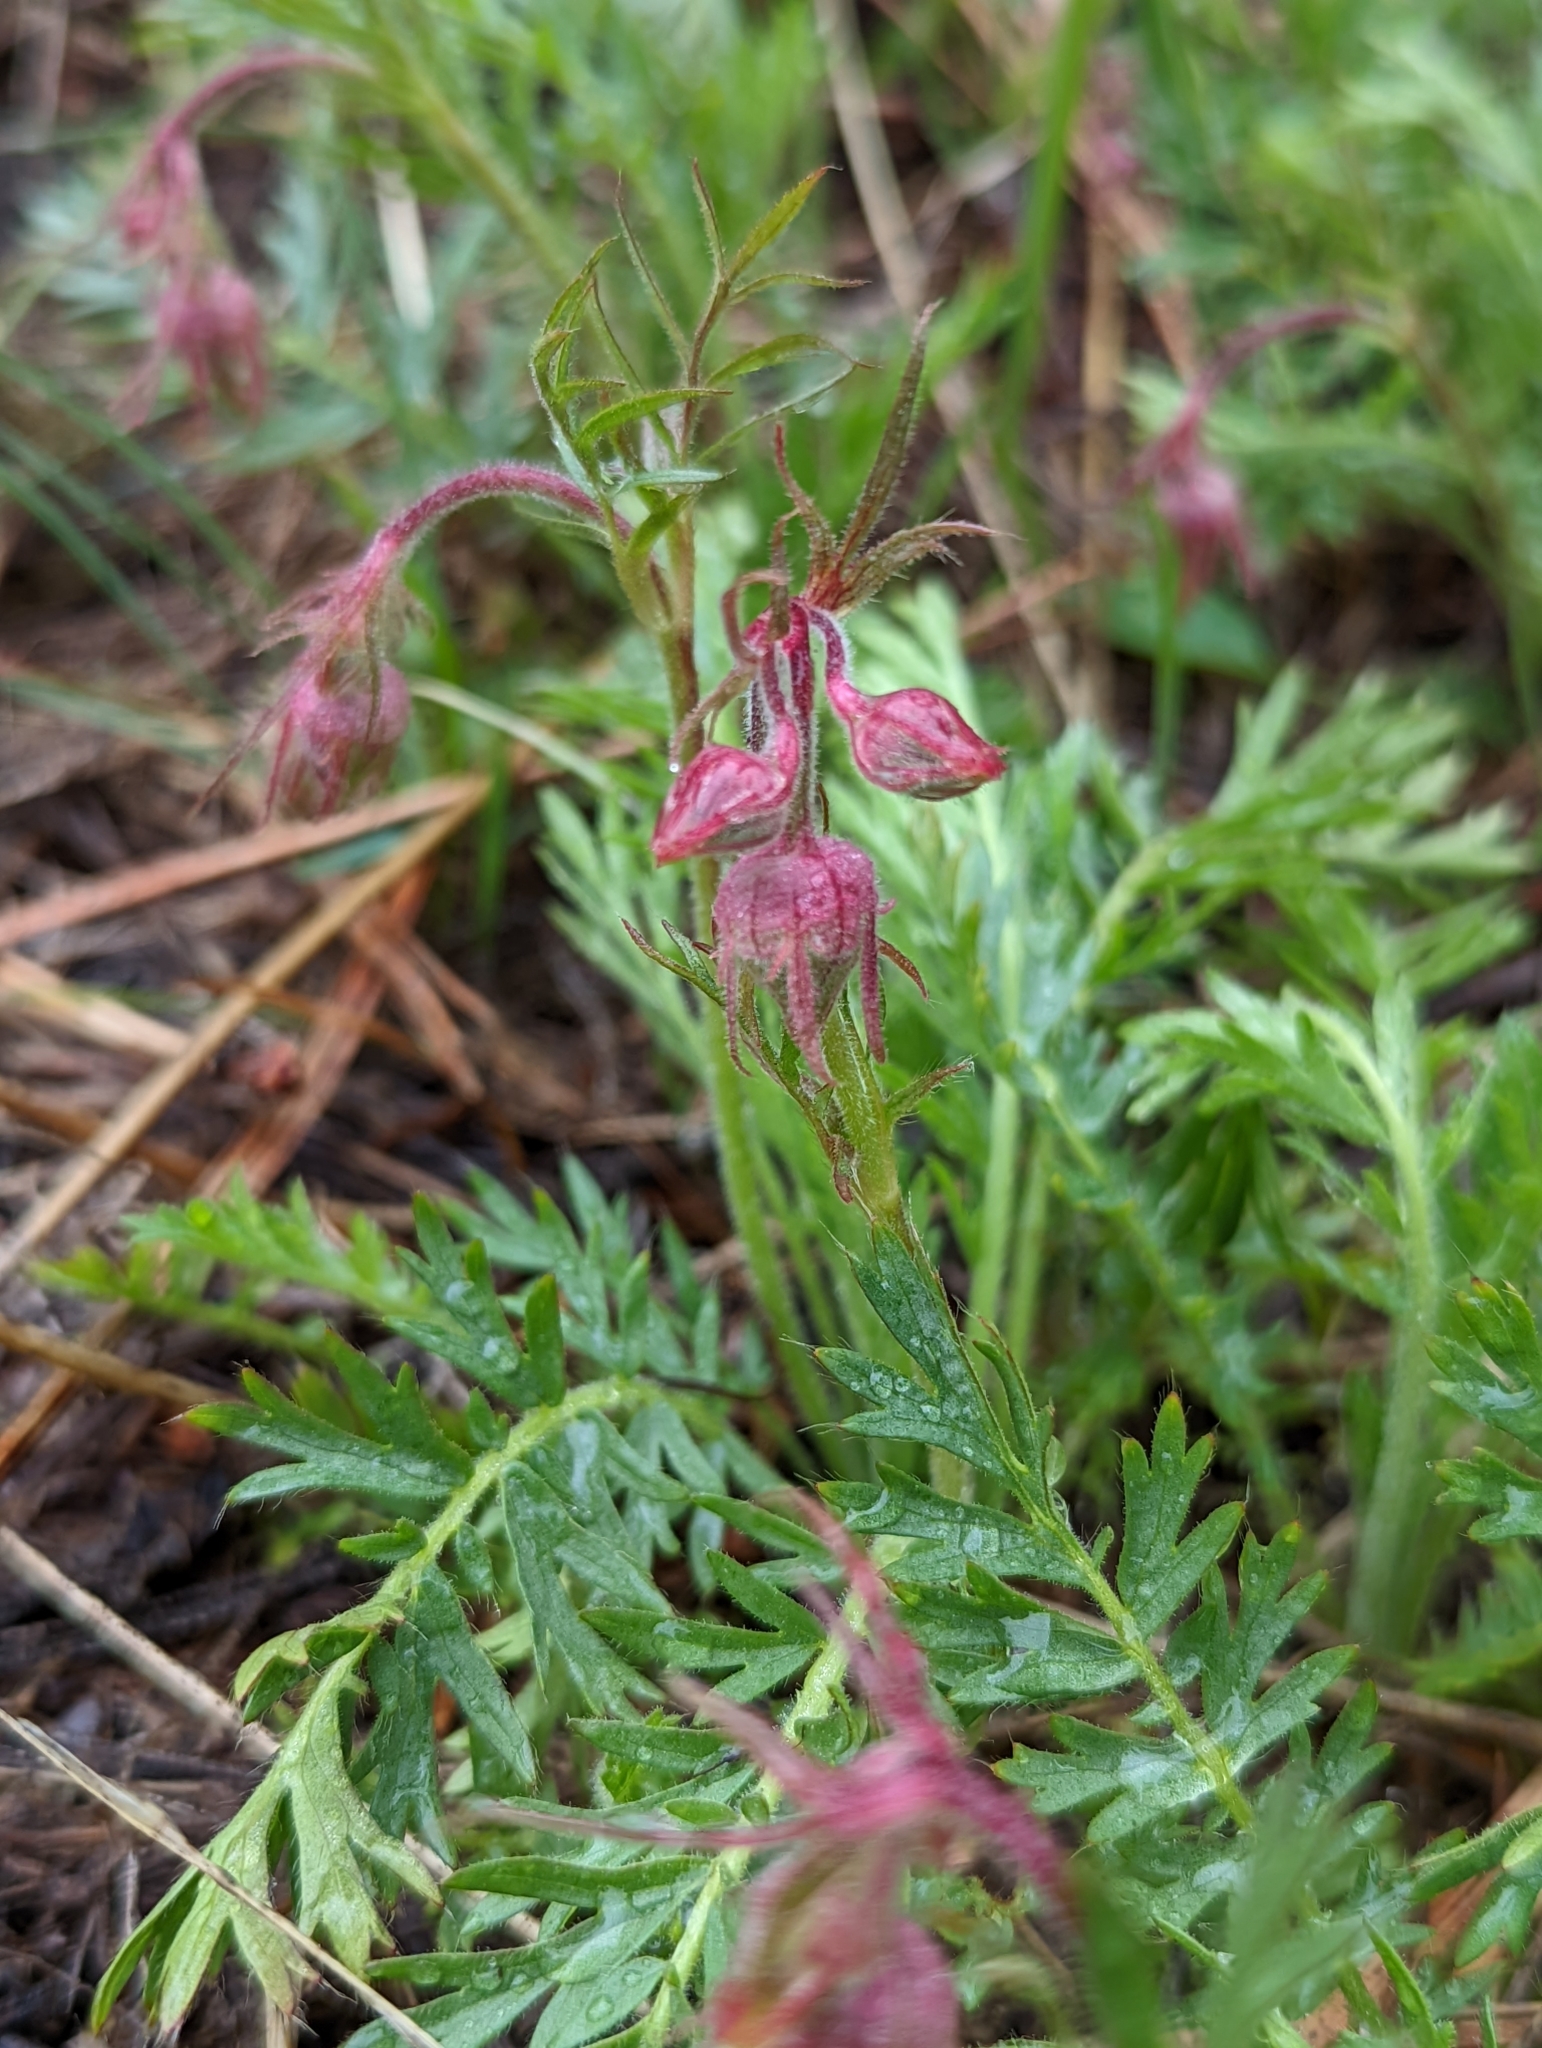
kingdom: Plantae
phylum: Tracheophyta
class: Magnoliopsida
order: Rosales
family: Rosaceae
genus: Geum
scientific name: Geum triflorum
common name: Old man's whiskers
